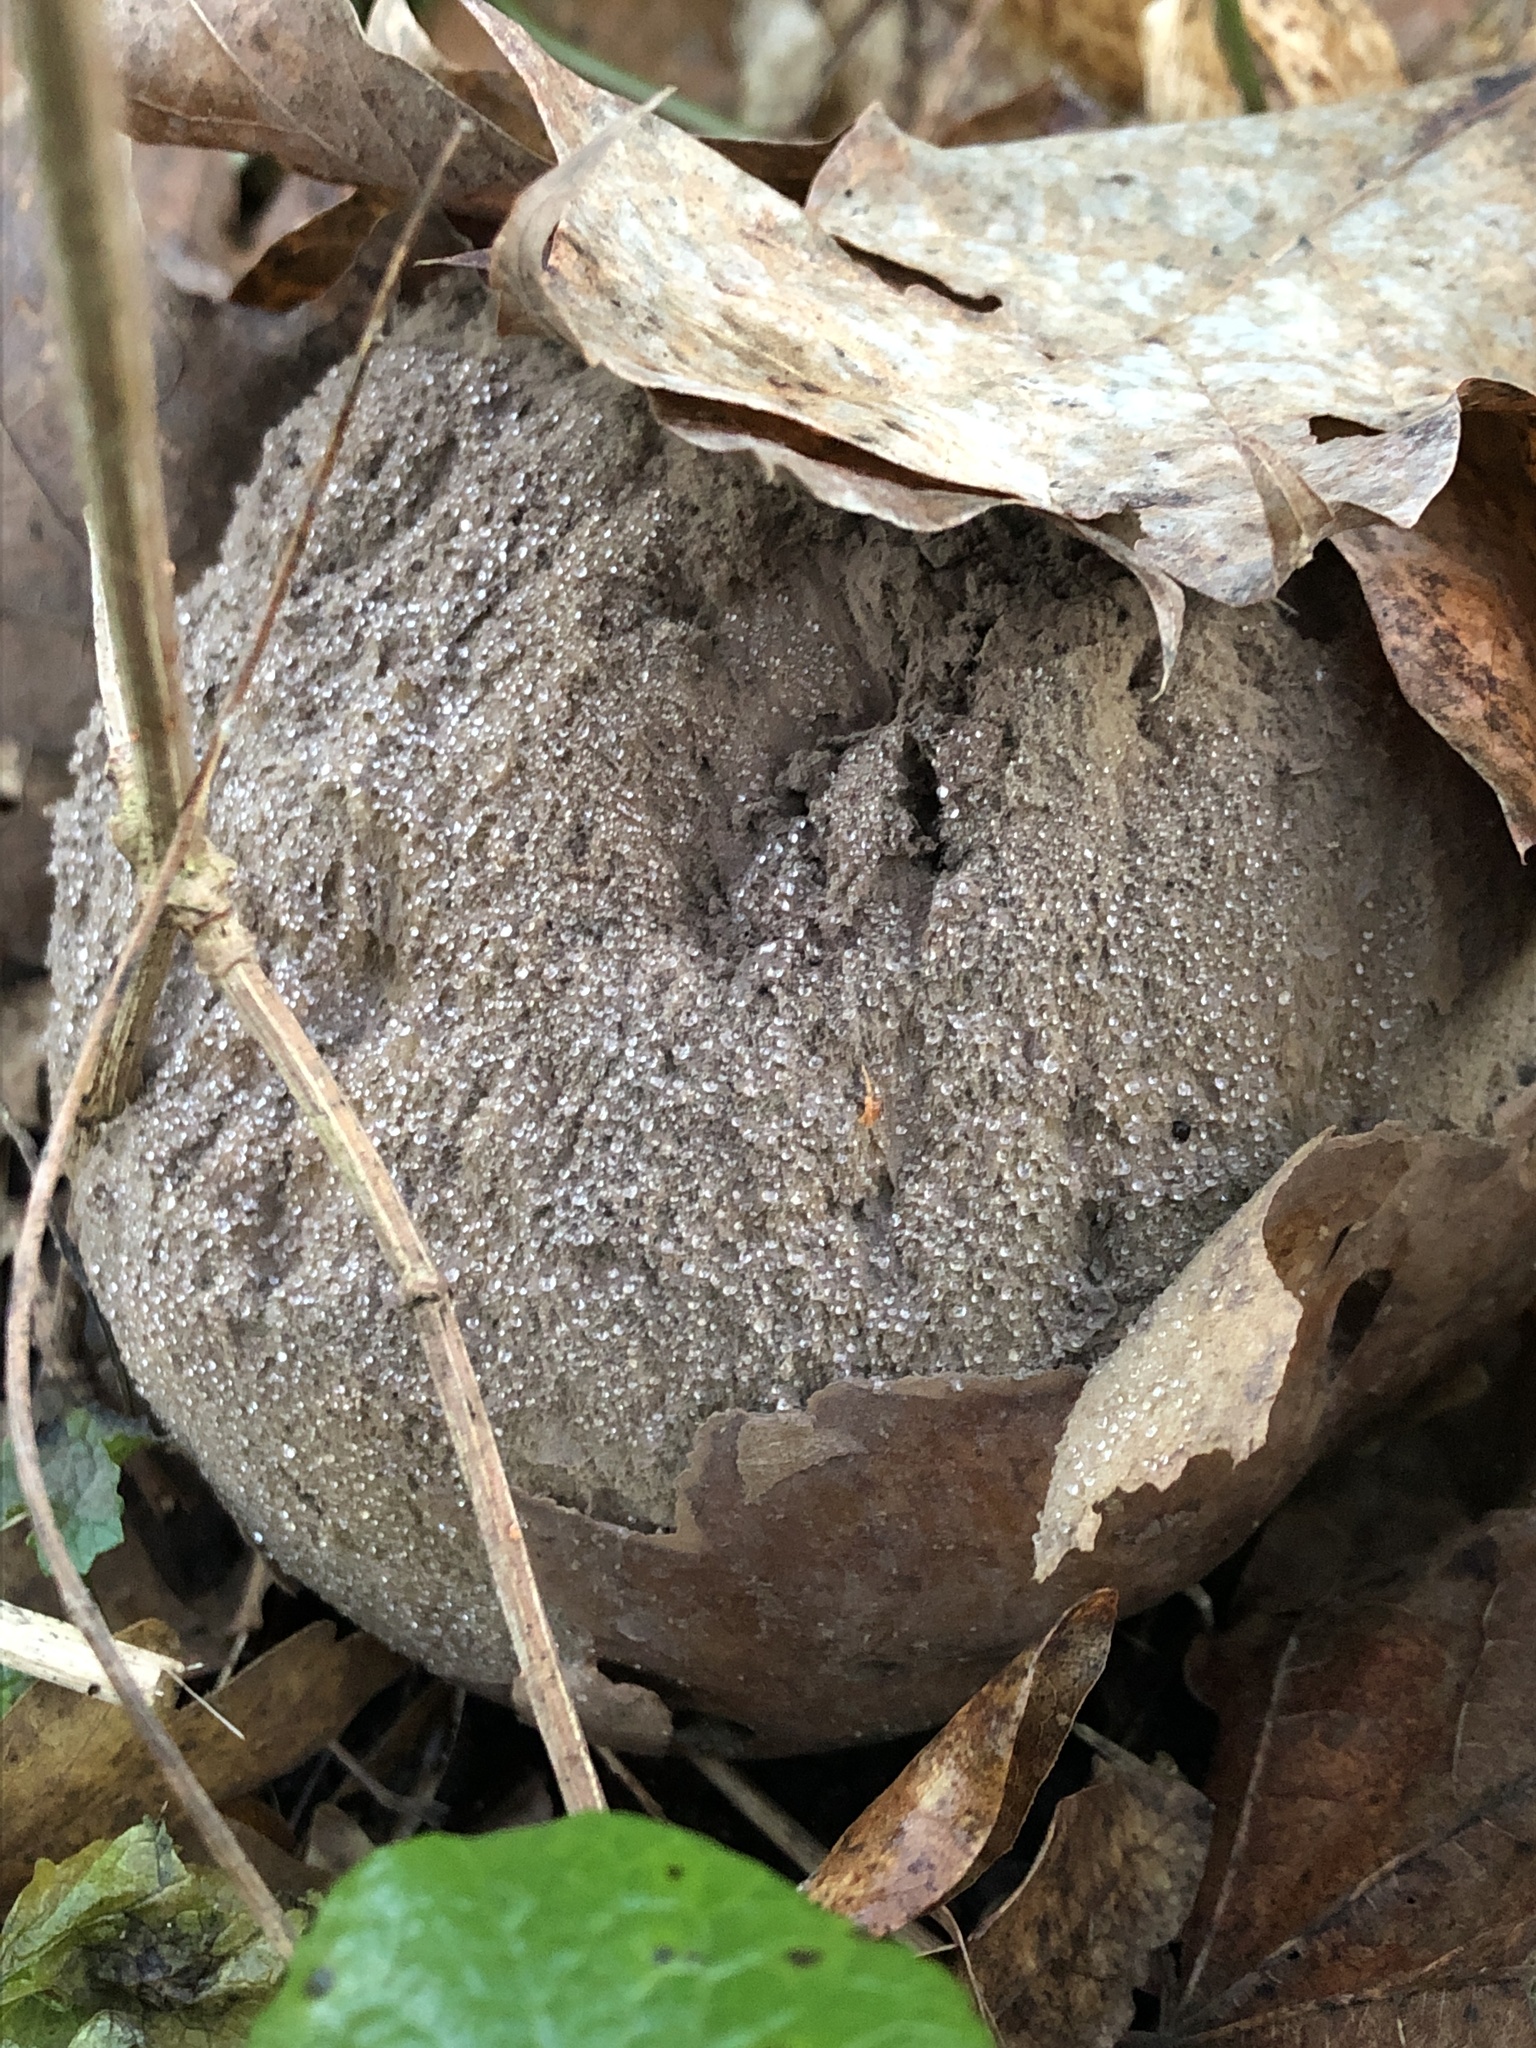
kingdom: Fungi
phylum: Basidiomycota
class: Agaricomycetes
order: Agaricales
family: Lycoperdaceae
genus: Calvatia
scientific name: Calvatia gigantea
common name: Giant puffball
